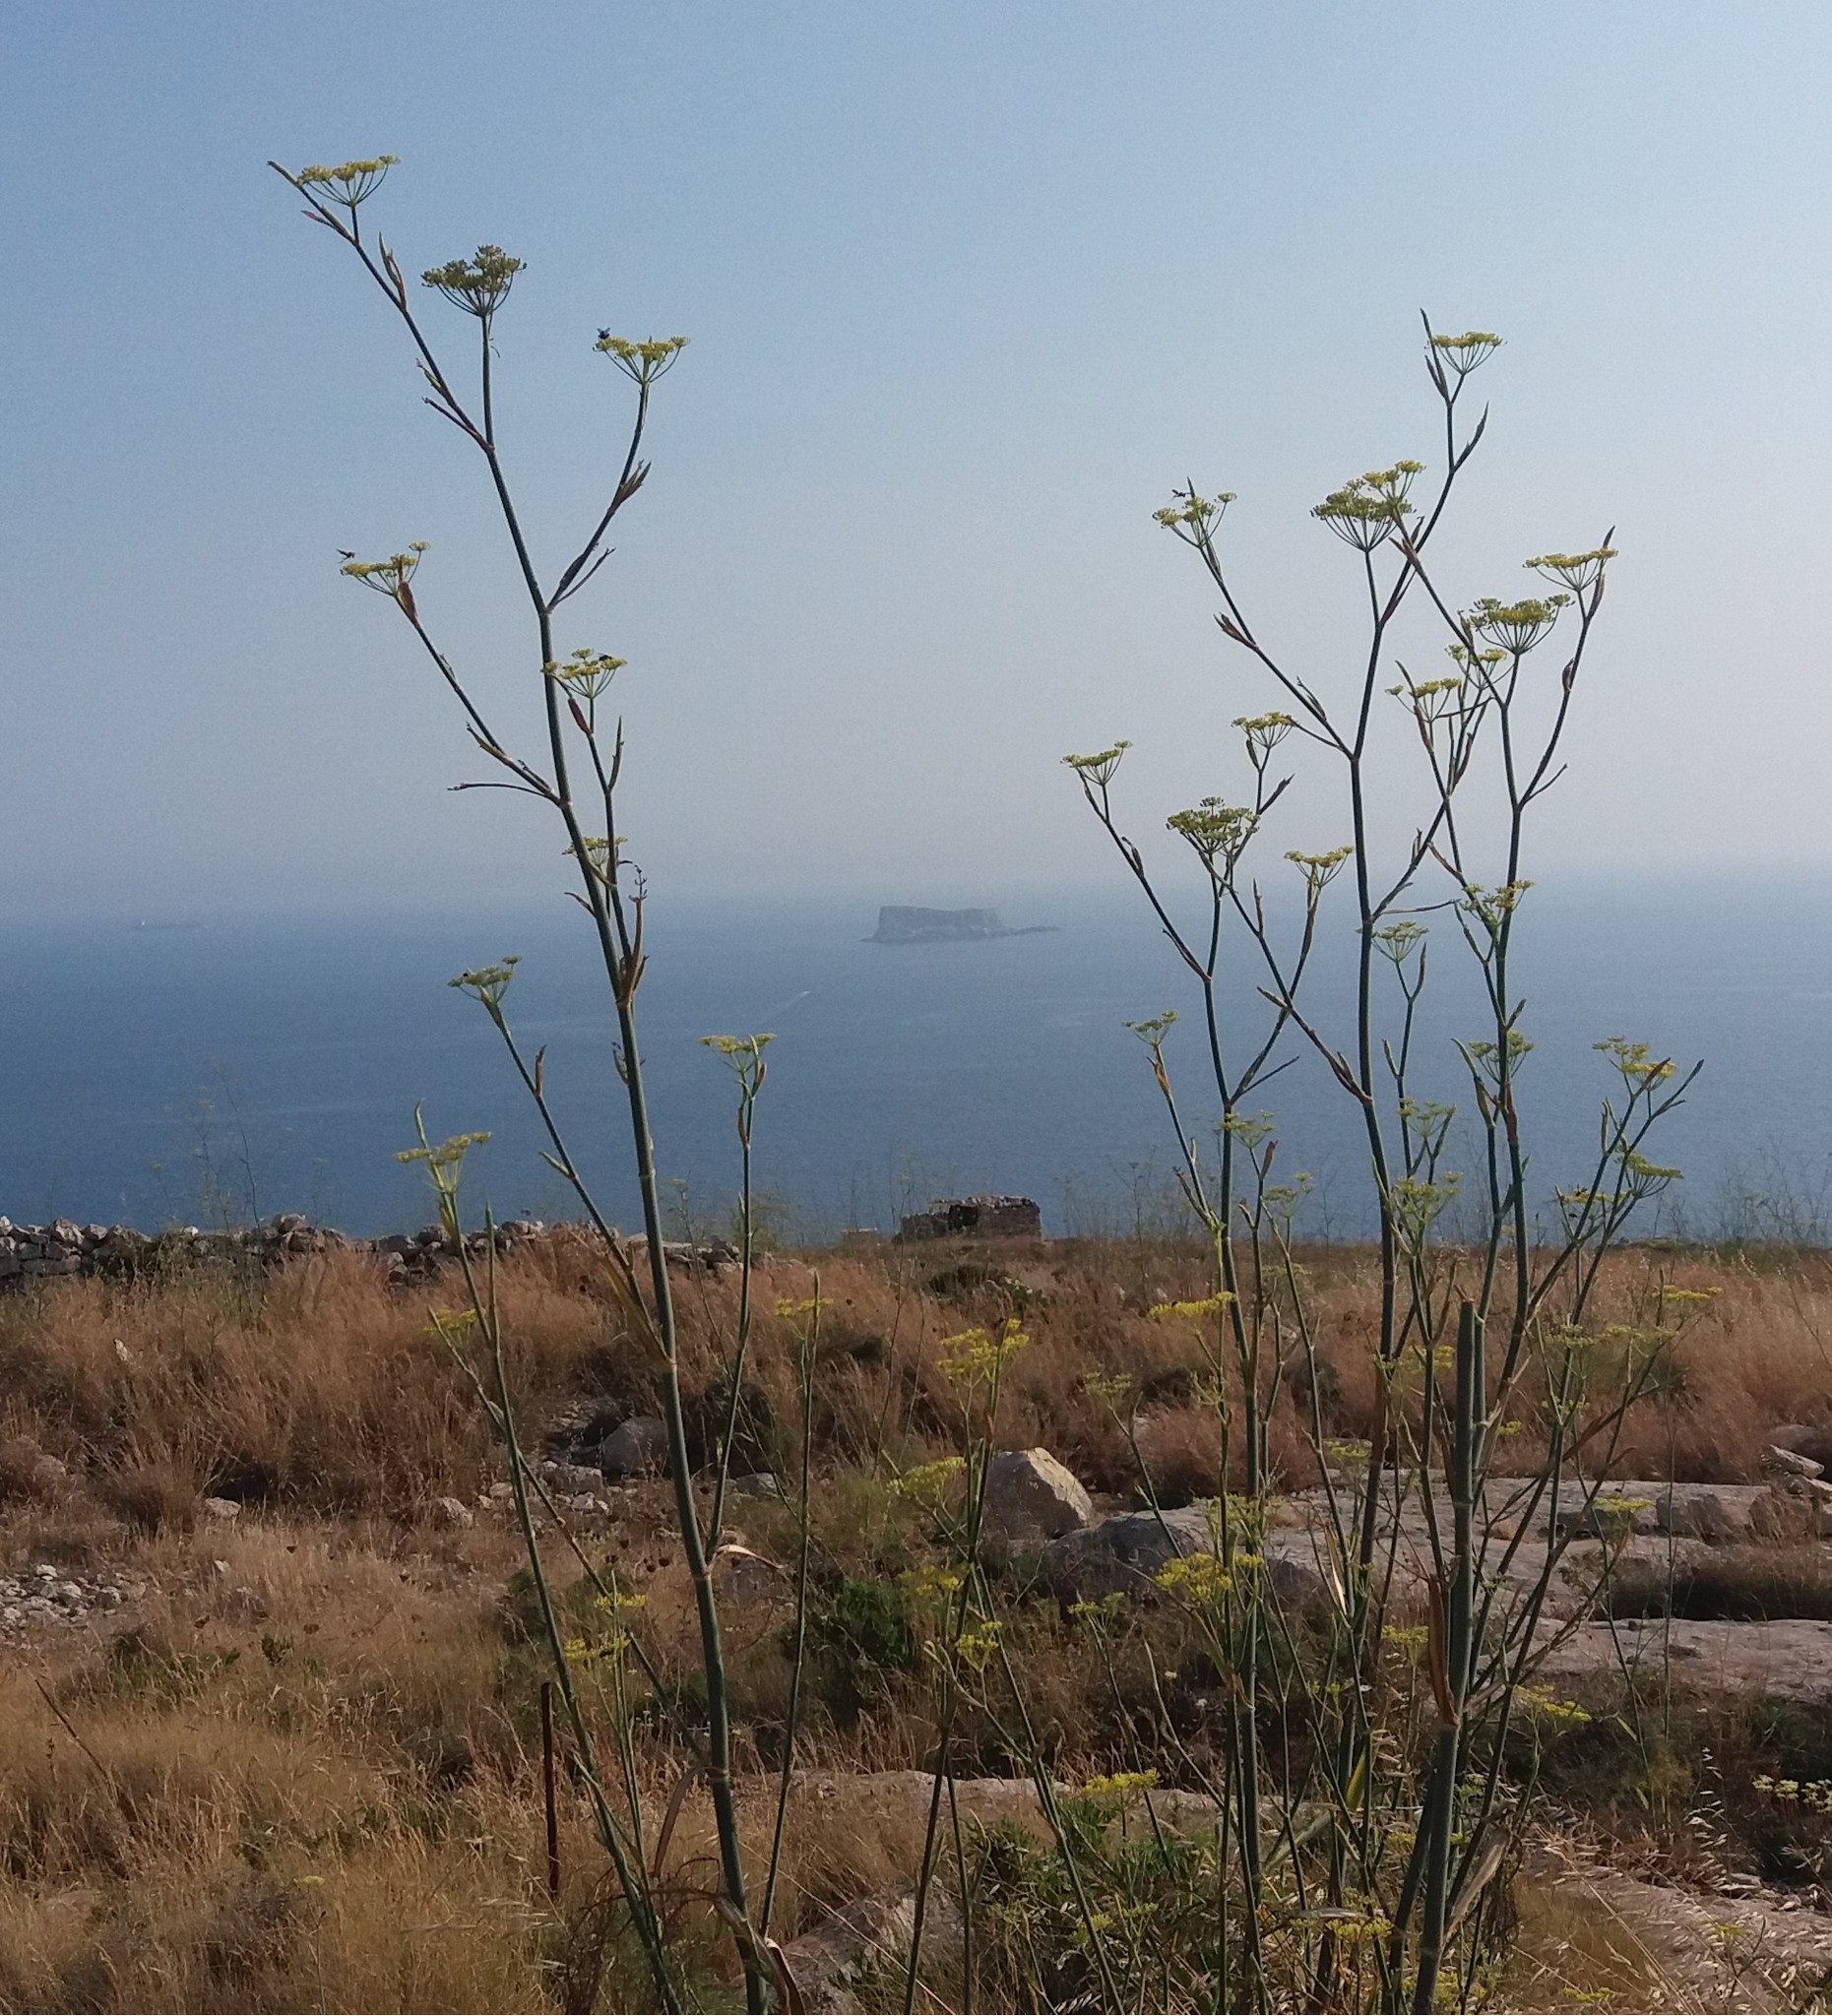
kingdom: Plantae
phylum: Tracheophyta
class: Magnoliopsida
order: Apiales
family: Apiaceae
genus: Foeniculum
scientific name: Foeniculum vulgare
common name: Fennel
